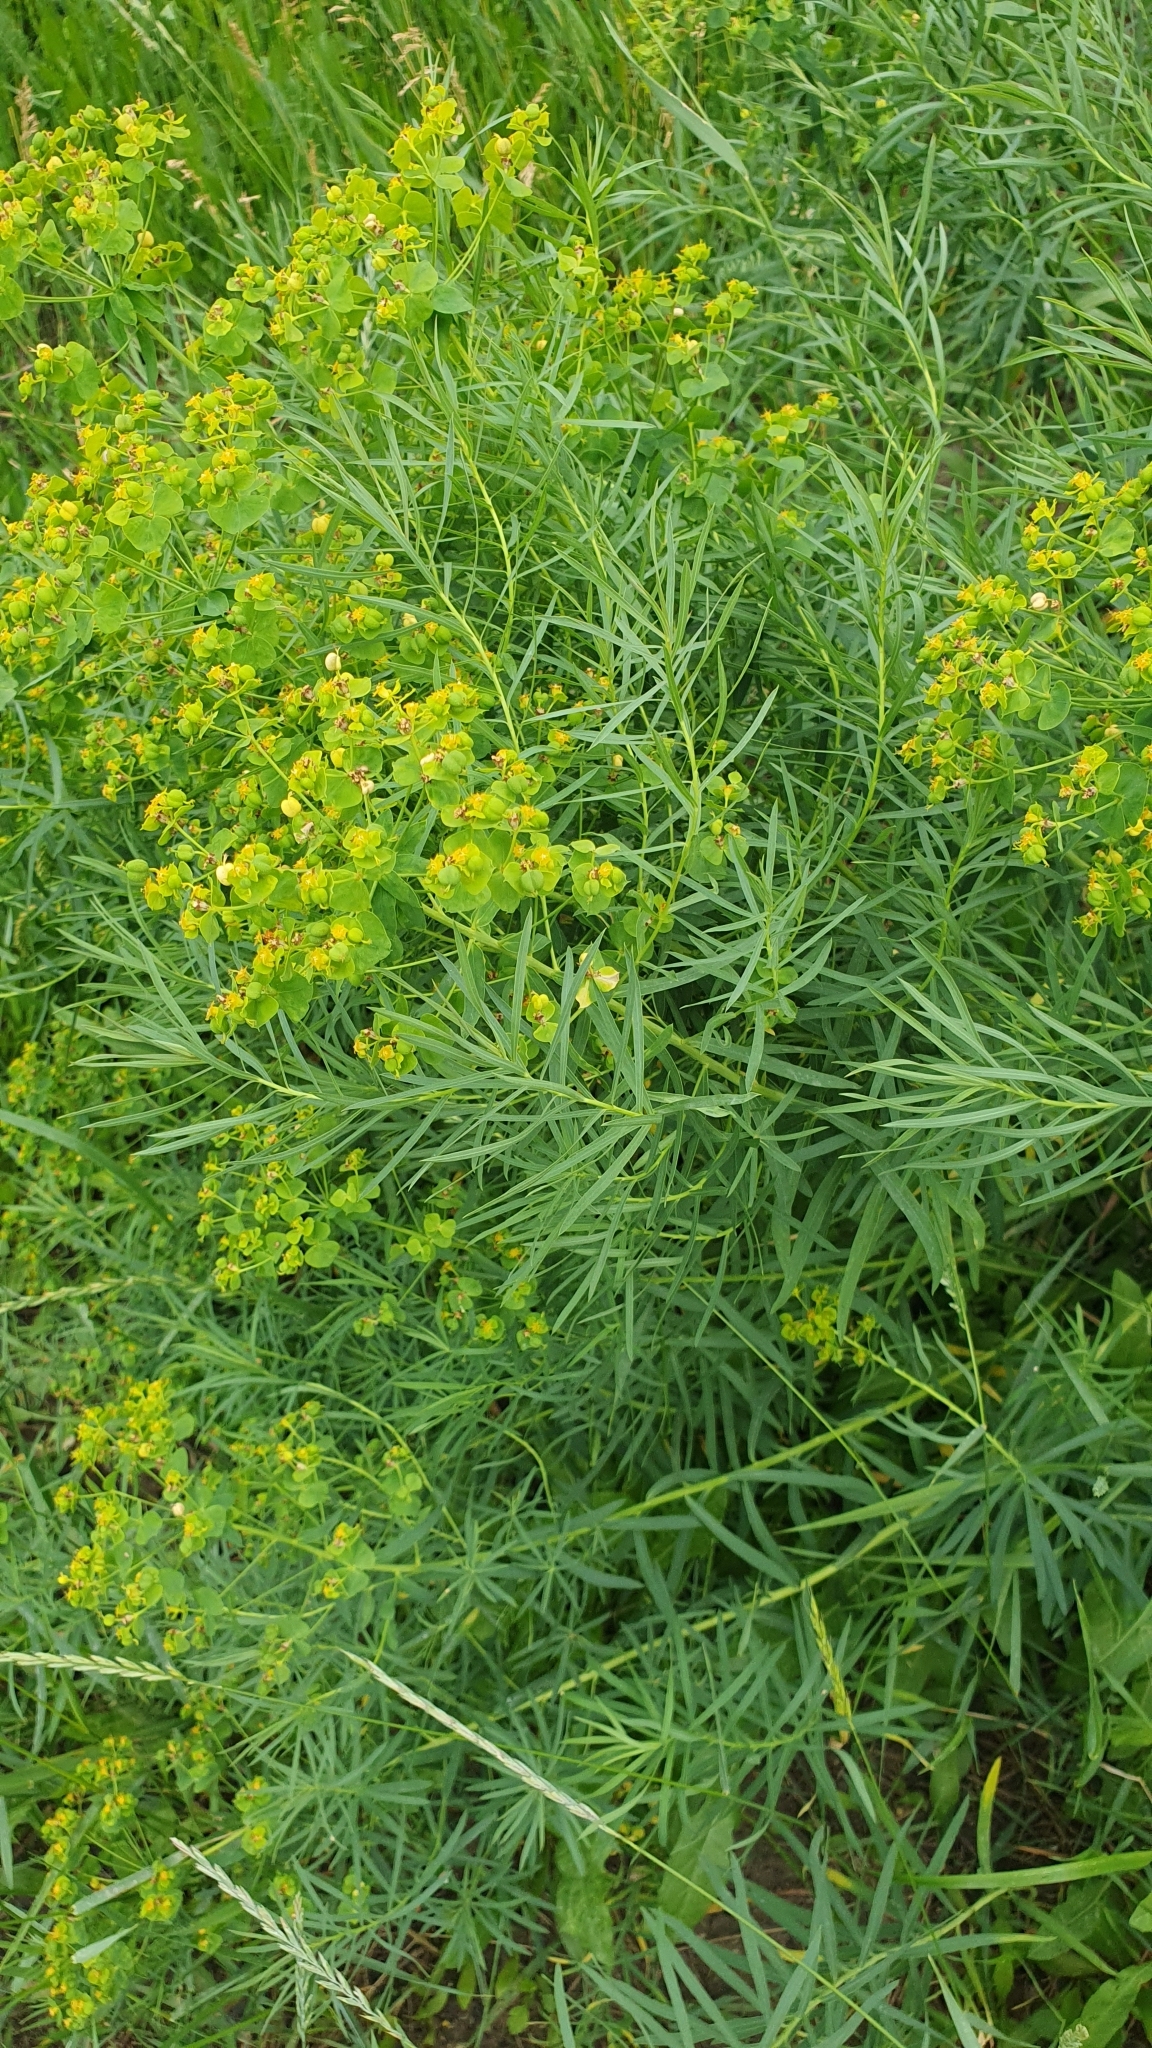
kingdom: Plantae
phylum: Tracheophyta
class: Magnoliopsida
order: Malpighiales
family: Euphorbiaceae
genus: Euphorbia
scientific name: Euphorbia virgata
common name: Leafy spurge
